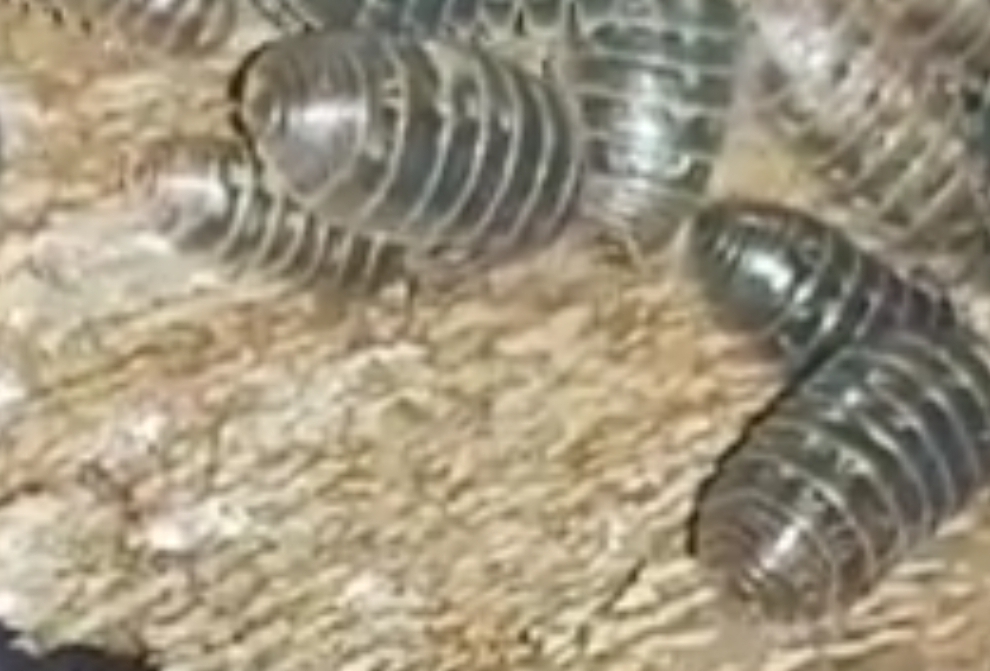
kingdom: Animalia
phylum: Arthropoda
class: Malacostraca
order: Isopoda
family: Armadillidiidae
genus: Armadillidium
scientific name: Armadillidium vulgare
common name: Common pill woodlouse
